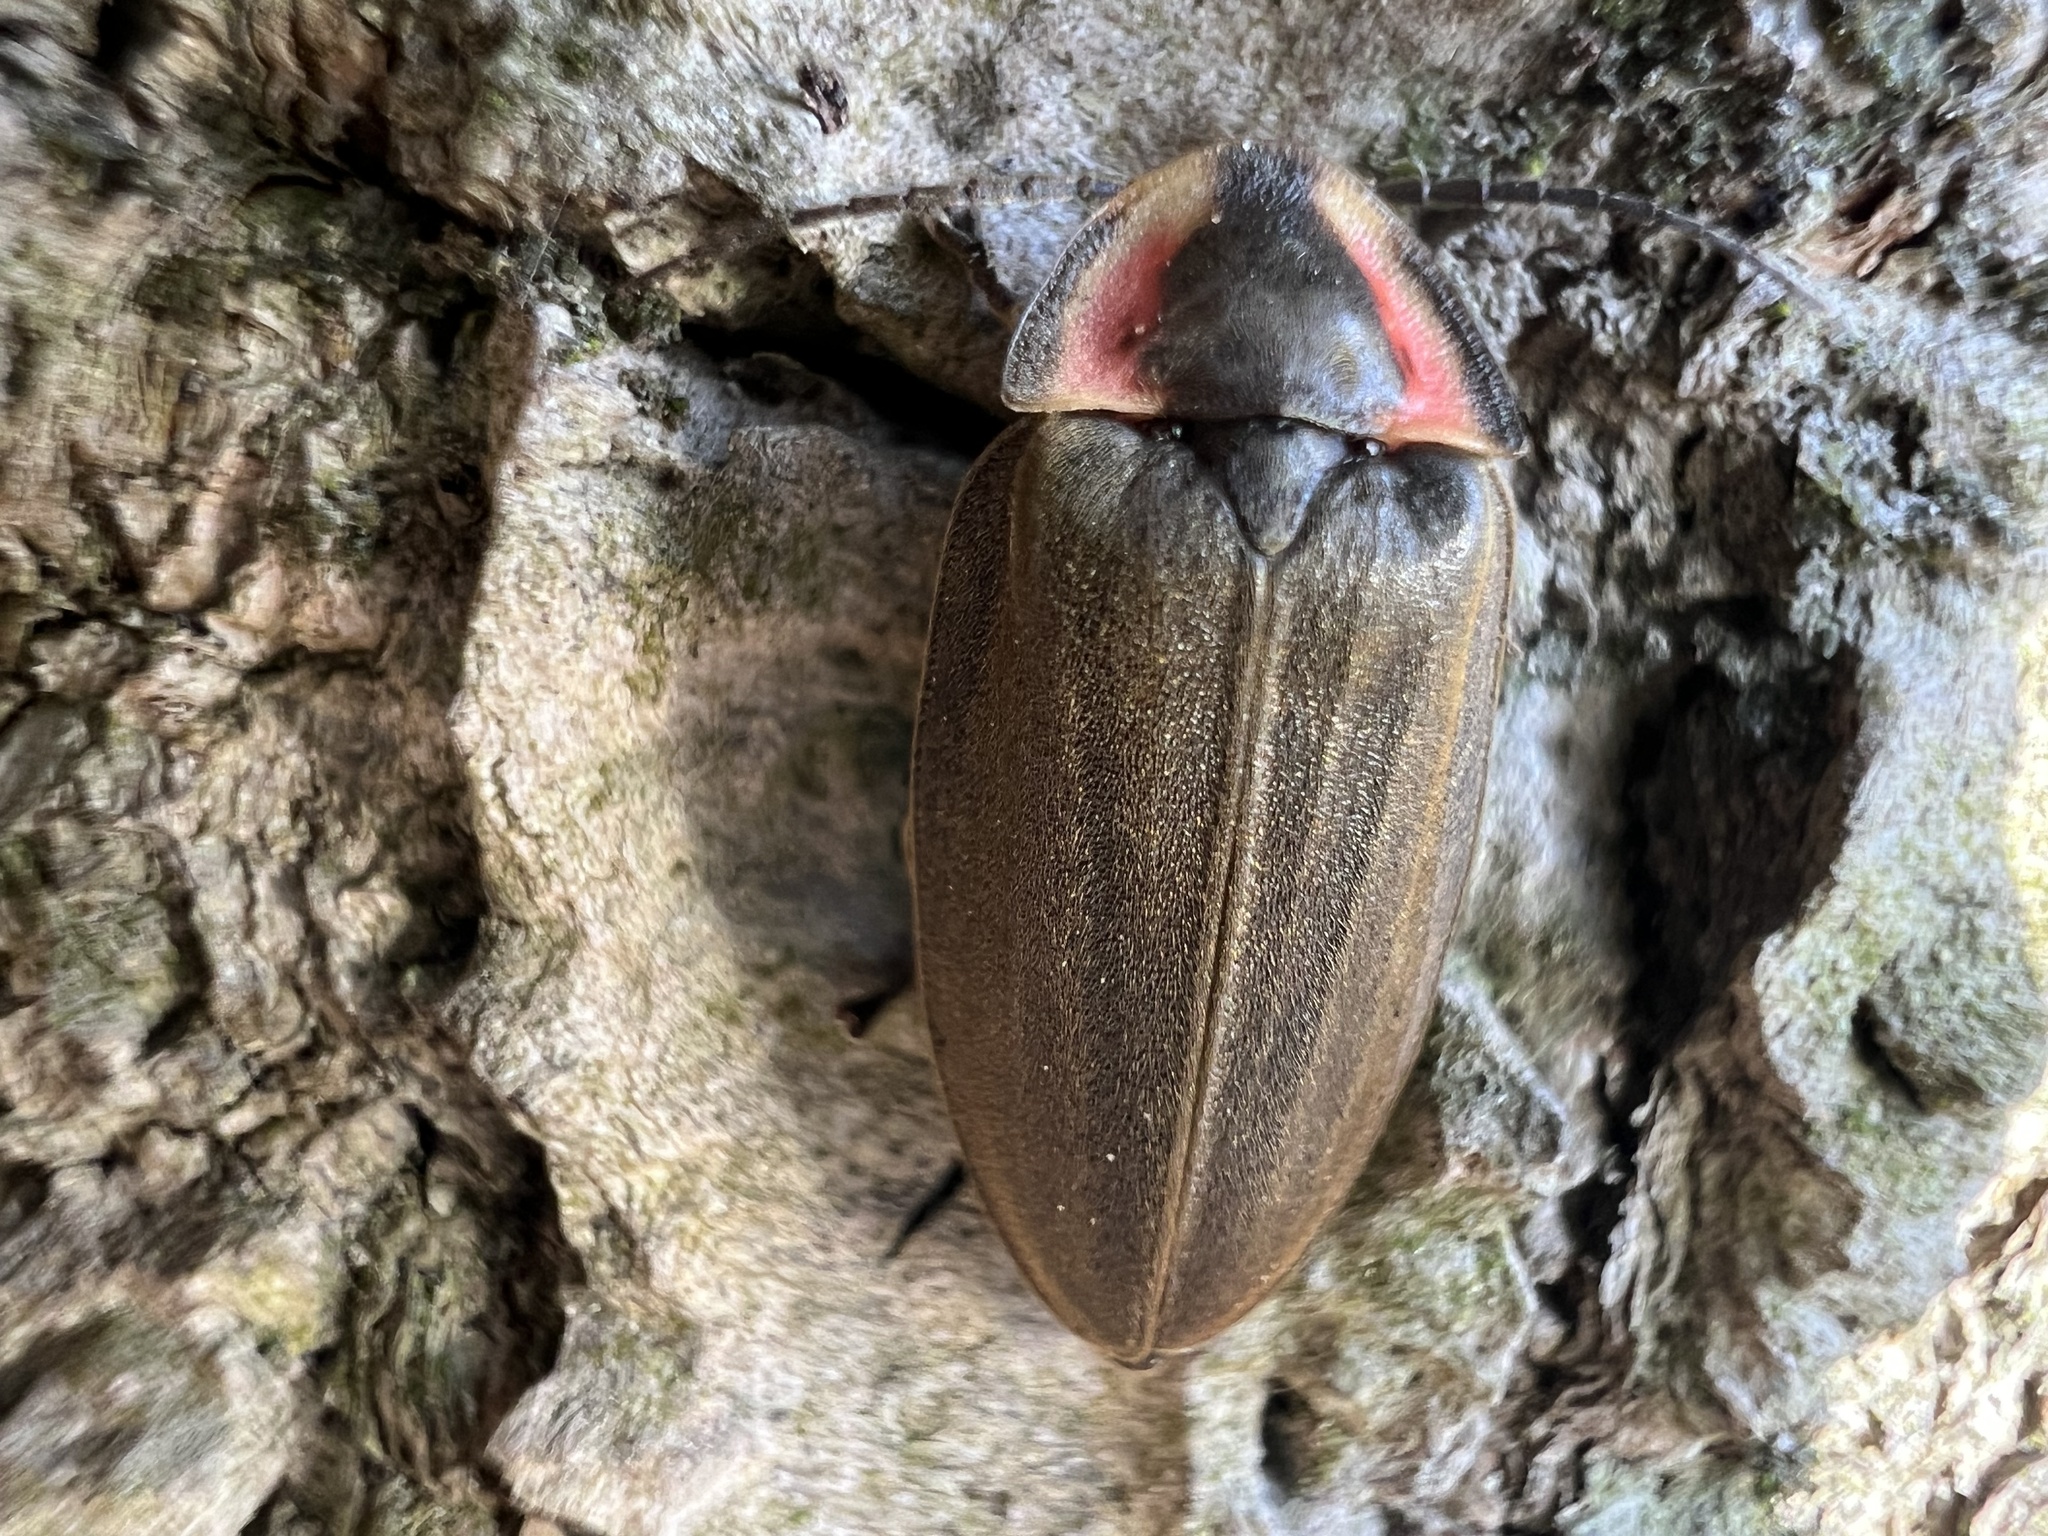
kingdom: Animalia
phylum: Arthropoda
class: Insecta
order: Coleoptera
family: Lampyridae
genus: Photinus
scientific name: Photinus corrusca
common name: Winter firefly
